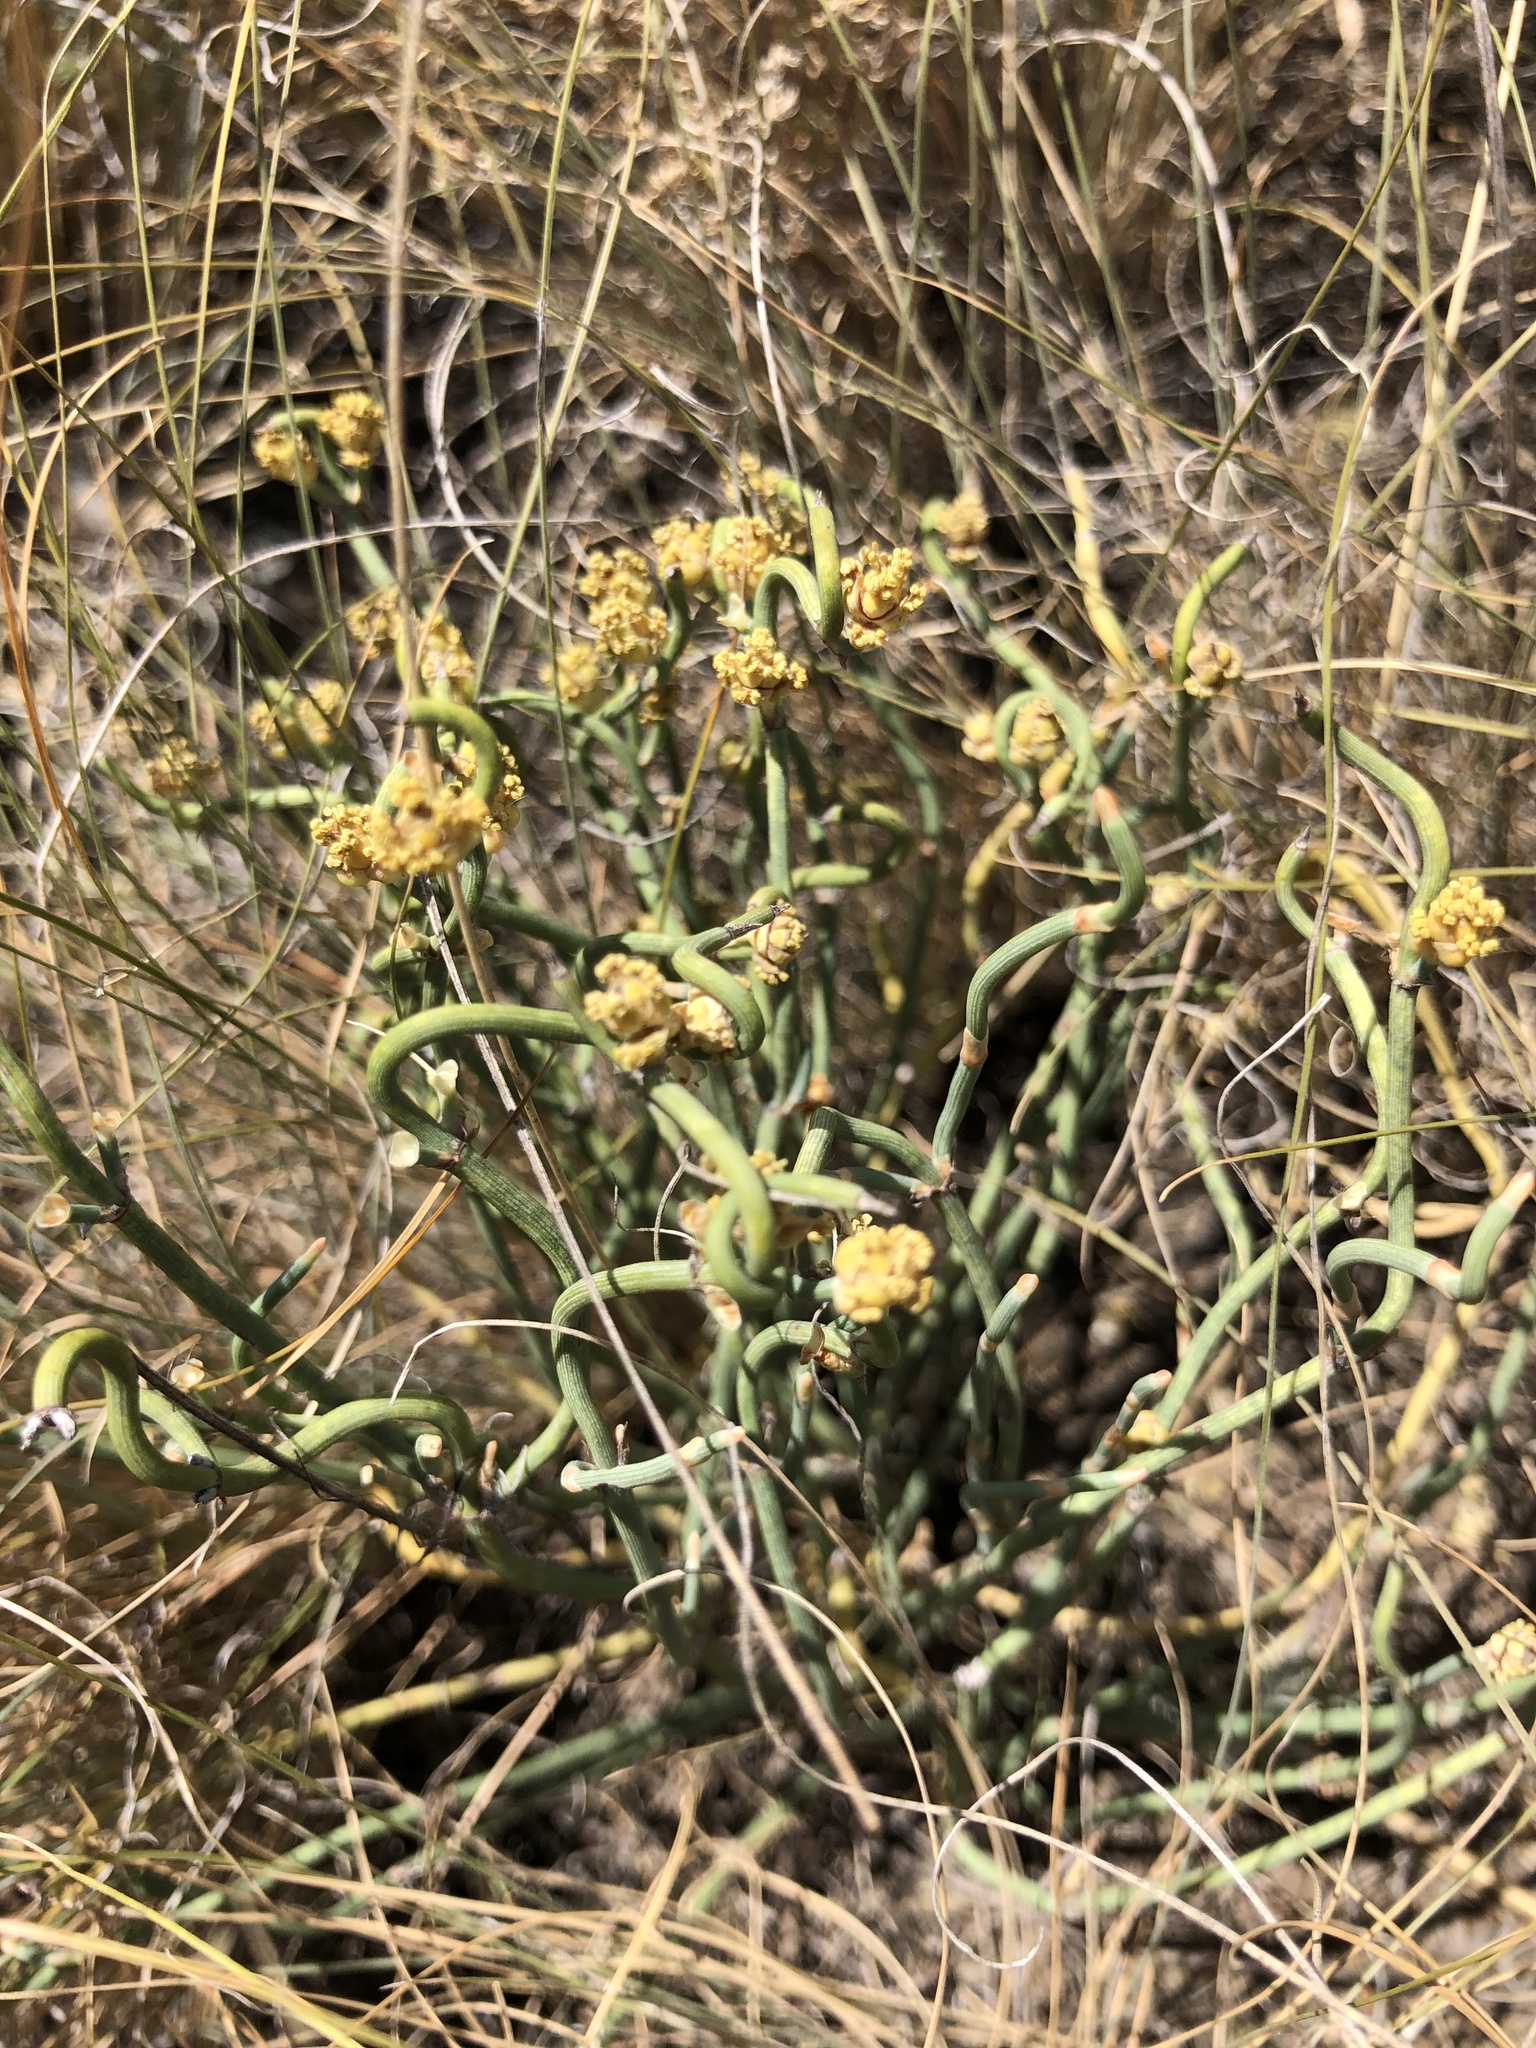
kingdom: Plantae
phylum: Tracheophyta
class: Gnetopsida
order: Ephedrales
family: Ephedraceae
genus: Ephedra
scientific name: Ephedra distachya
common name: Sea grape
